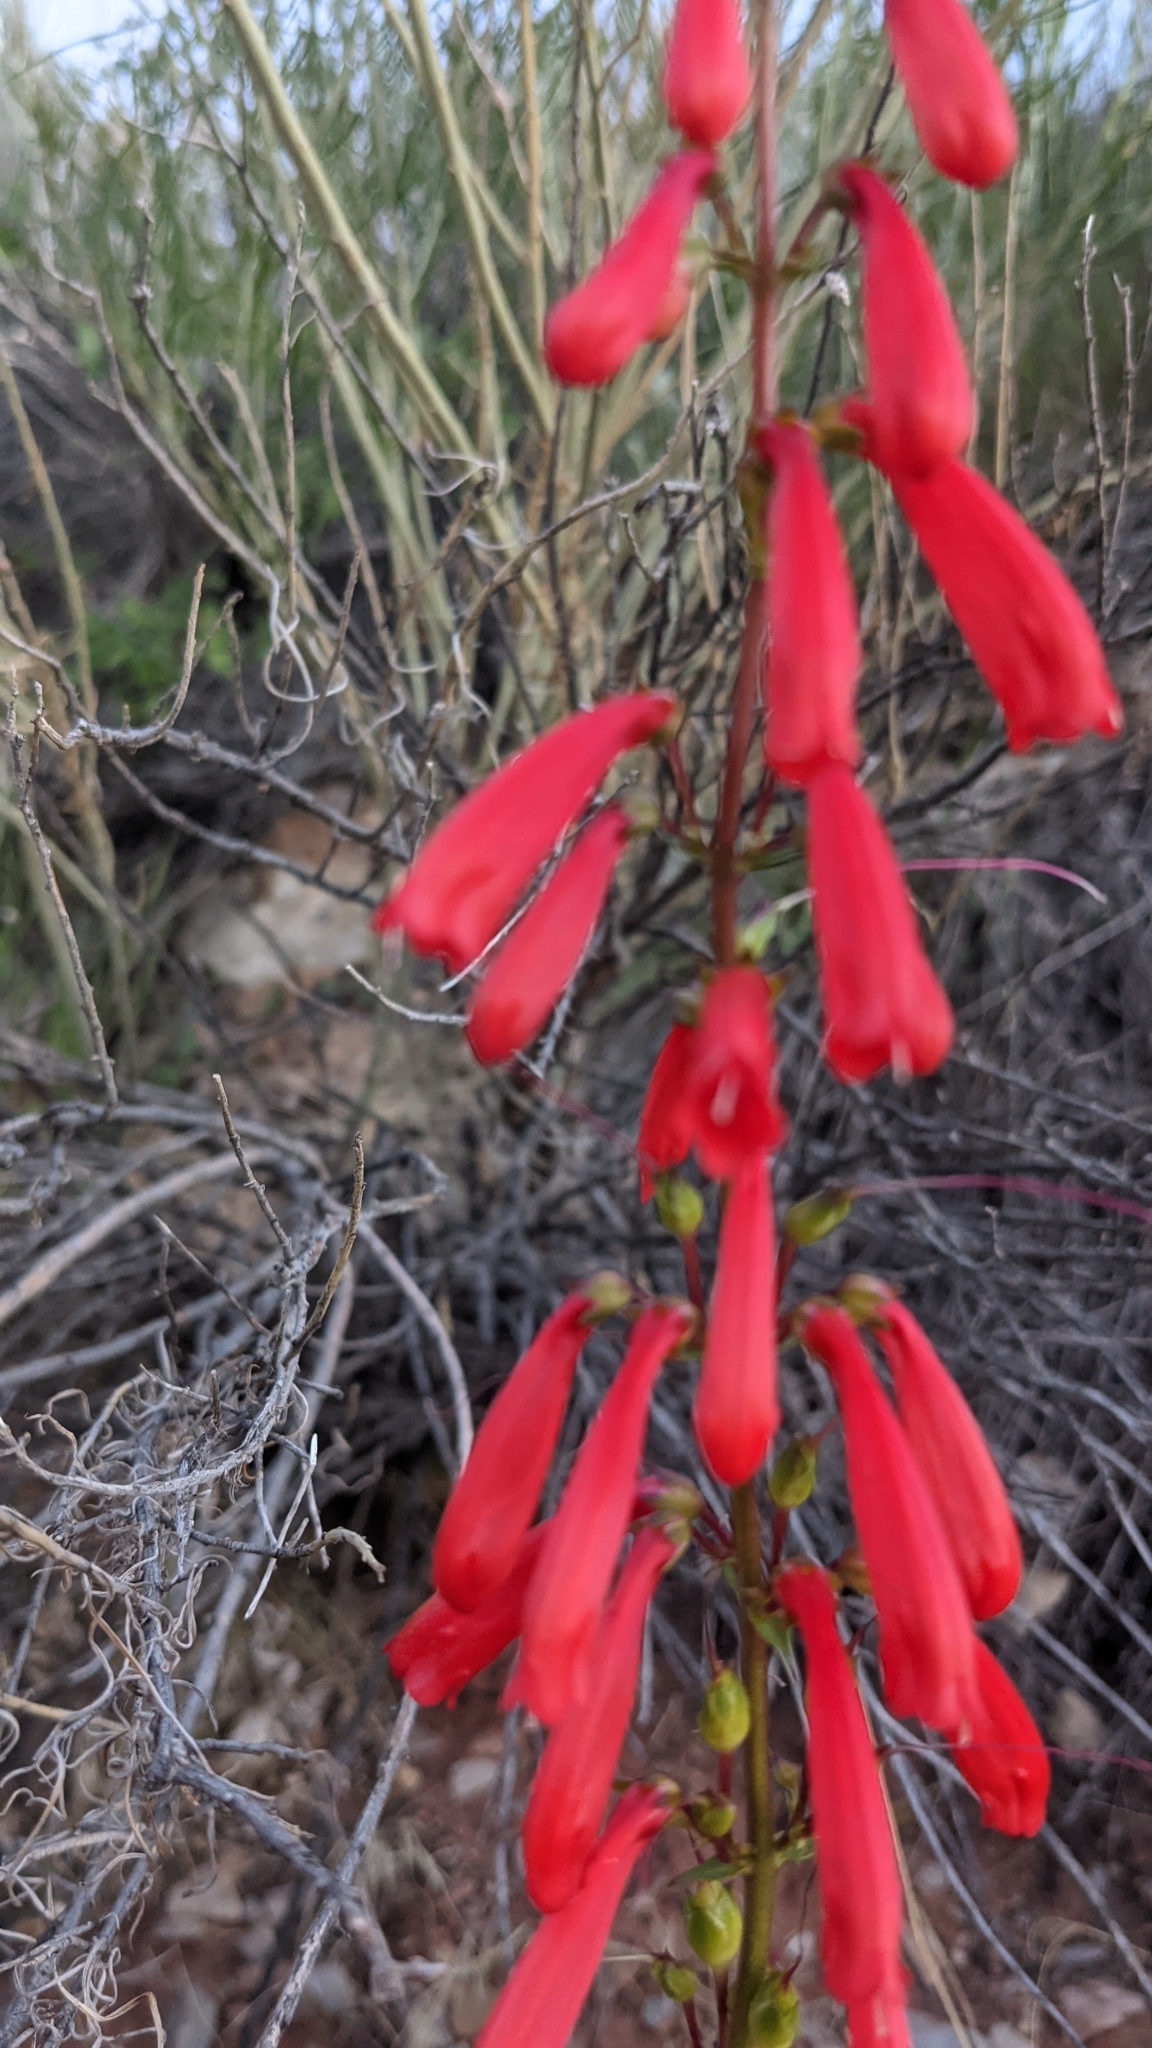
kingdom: Plantae
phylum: Tracheophyta
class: Magnoliopsida
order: Lamiales
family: Plantaginaceae
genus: Penstemon
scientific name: Penstemon eatonii
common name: Eaton's penstemon
